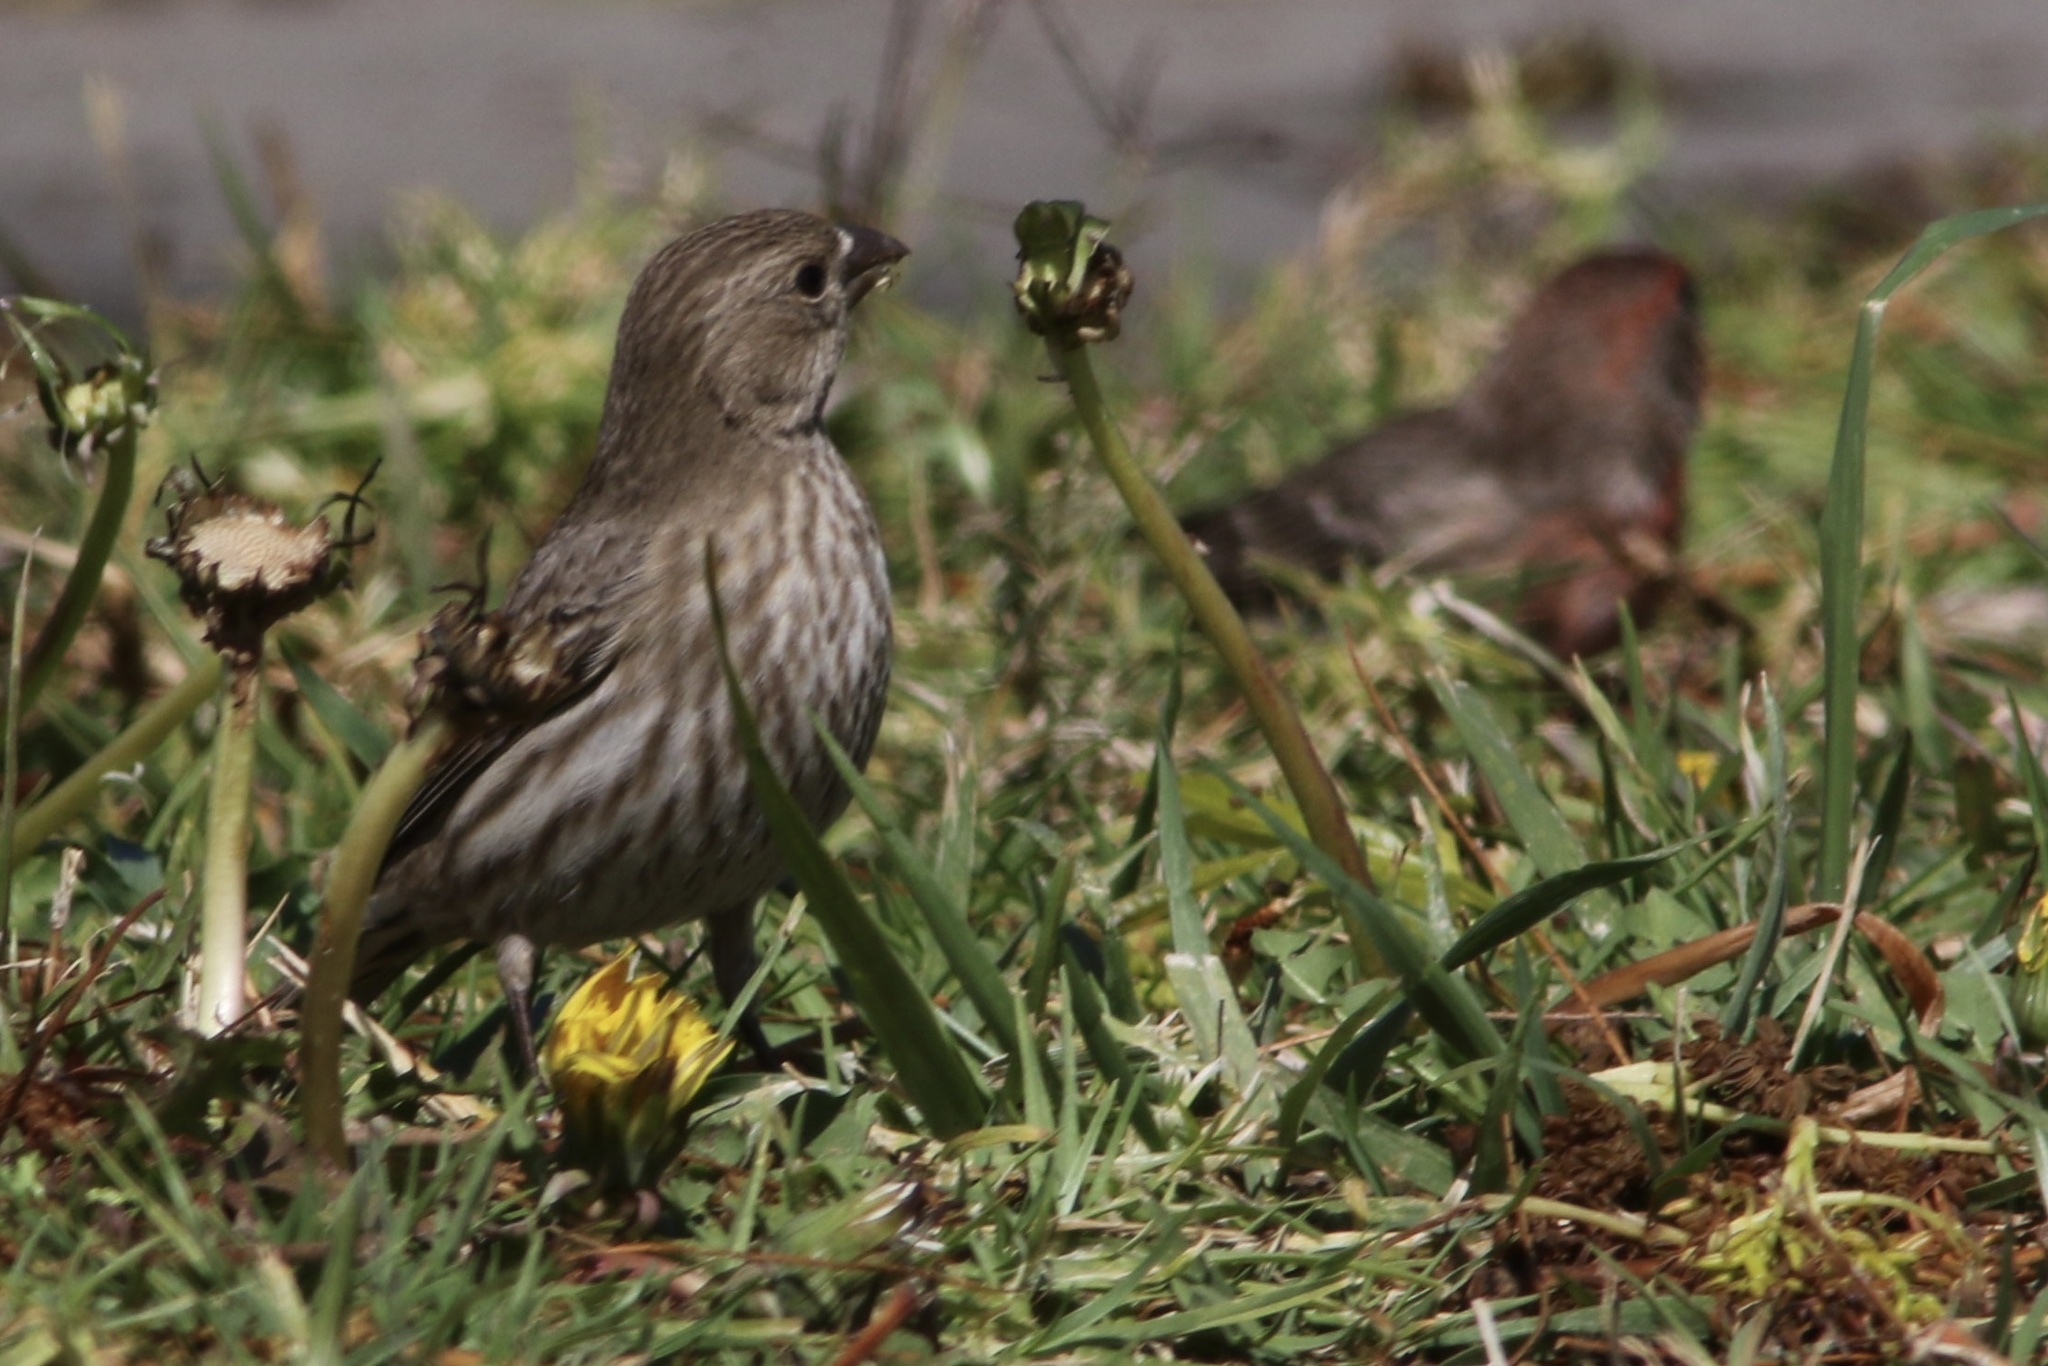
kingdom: Animalia
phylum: Chordata
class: Aves
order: Passeriformes
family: Fringillidae
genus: Haemorhous
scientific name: Haemorhous mexicanus
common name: House finch
